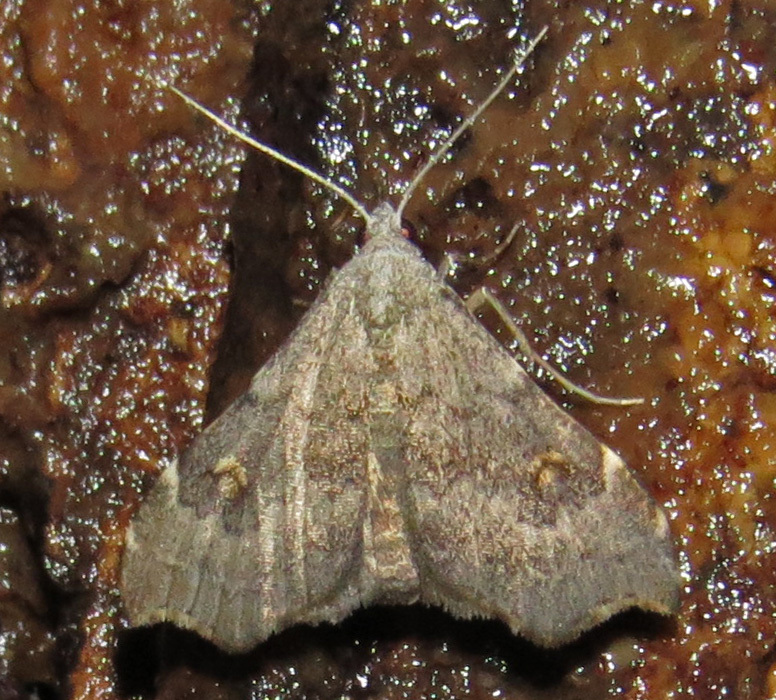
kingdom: Animalia
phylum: Arthropoda
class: Insecta
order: Lepidoptera
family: Erebidae
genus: Redectis
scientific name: Redectis pygmaea
